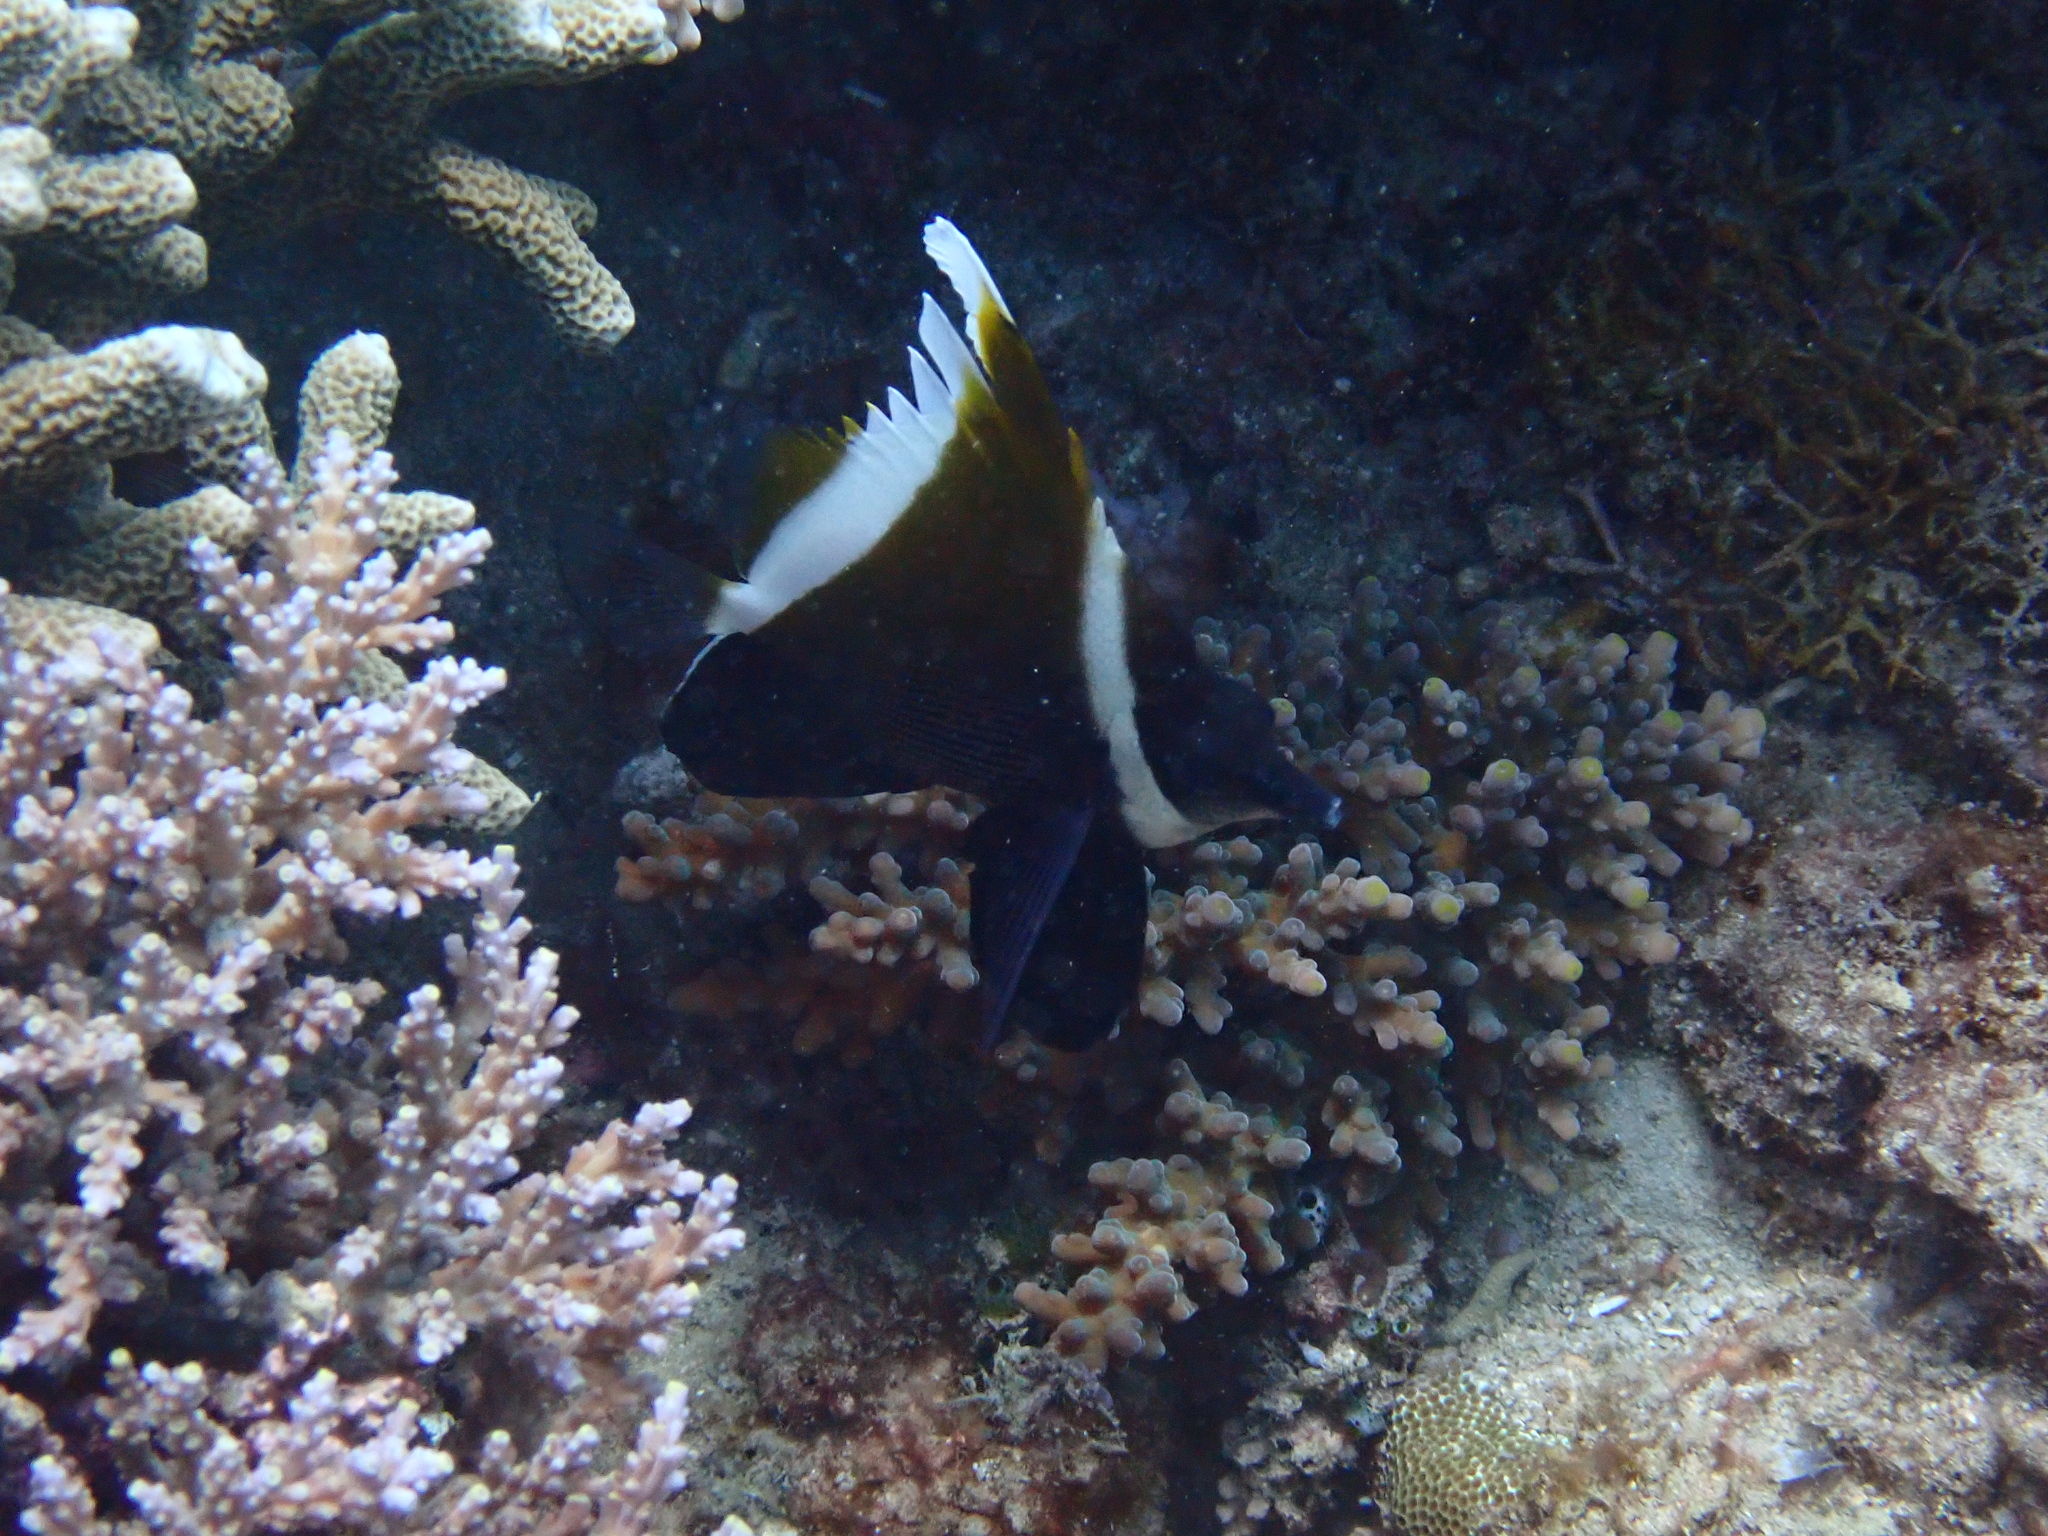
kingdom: Animalia
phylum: Chordata
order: Perciformes
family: Chaetodontidae
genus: Heniochus
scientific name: Heniochus varius
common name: Horned bannerfish
